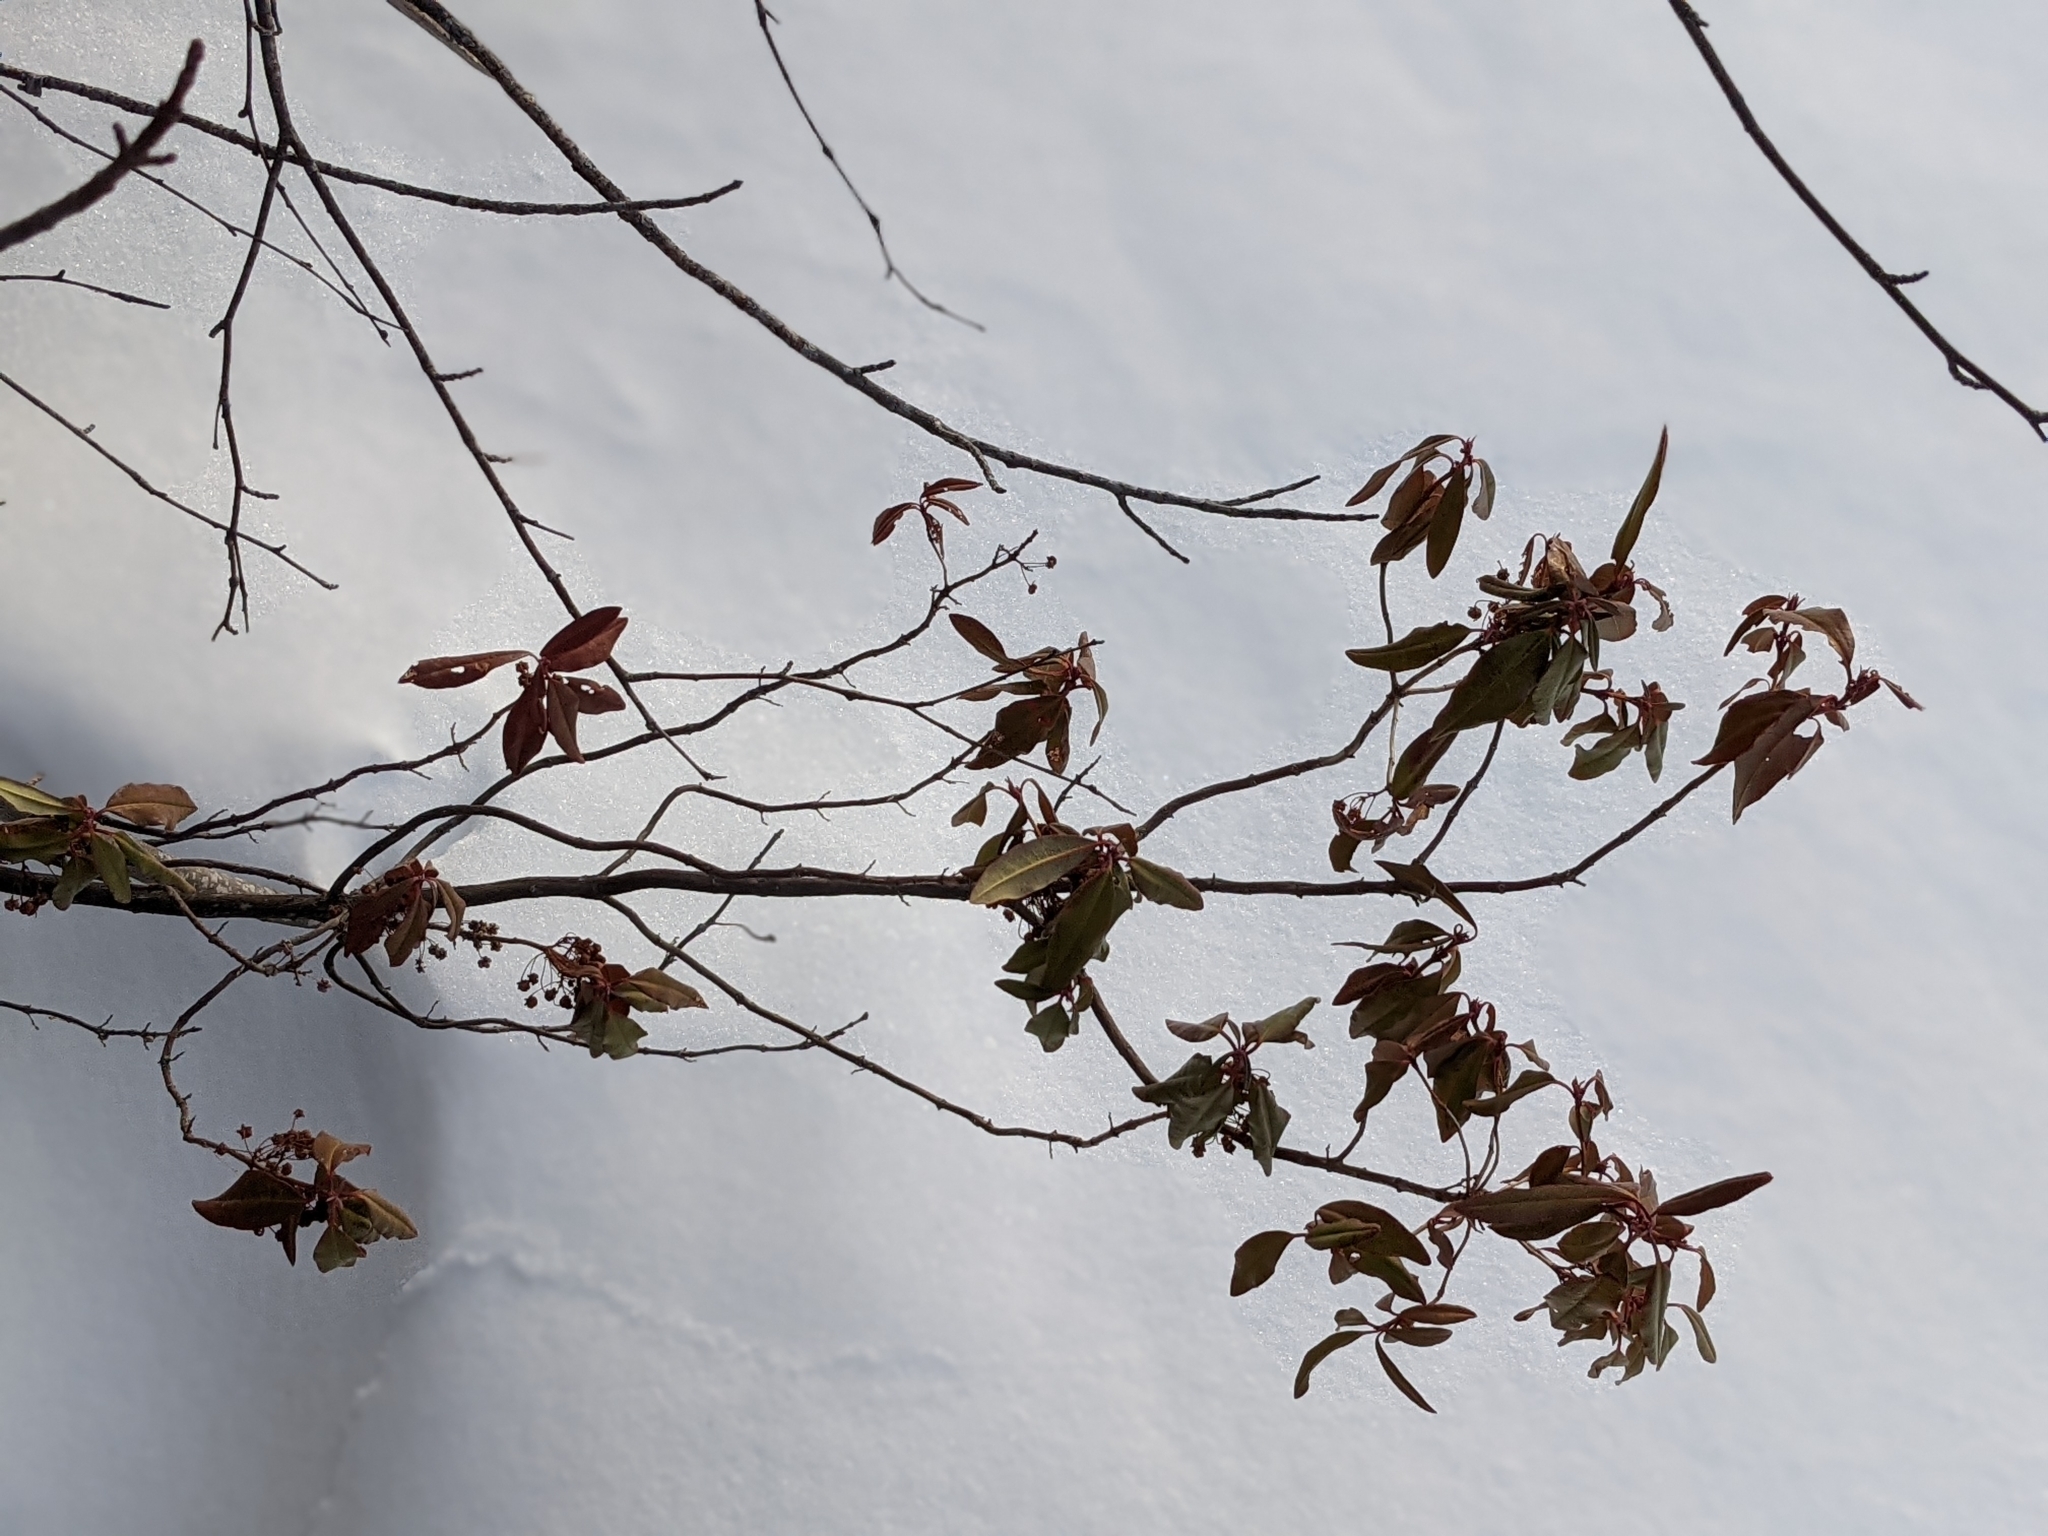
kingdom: Plantae
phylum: Tracheophyta
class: Magnoliopsida
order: Ericales
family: Ericaceae
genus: Kalmia
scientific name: Kalmia angustifolia
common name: Sheep-laurel
